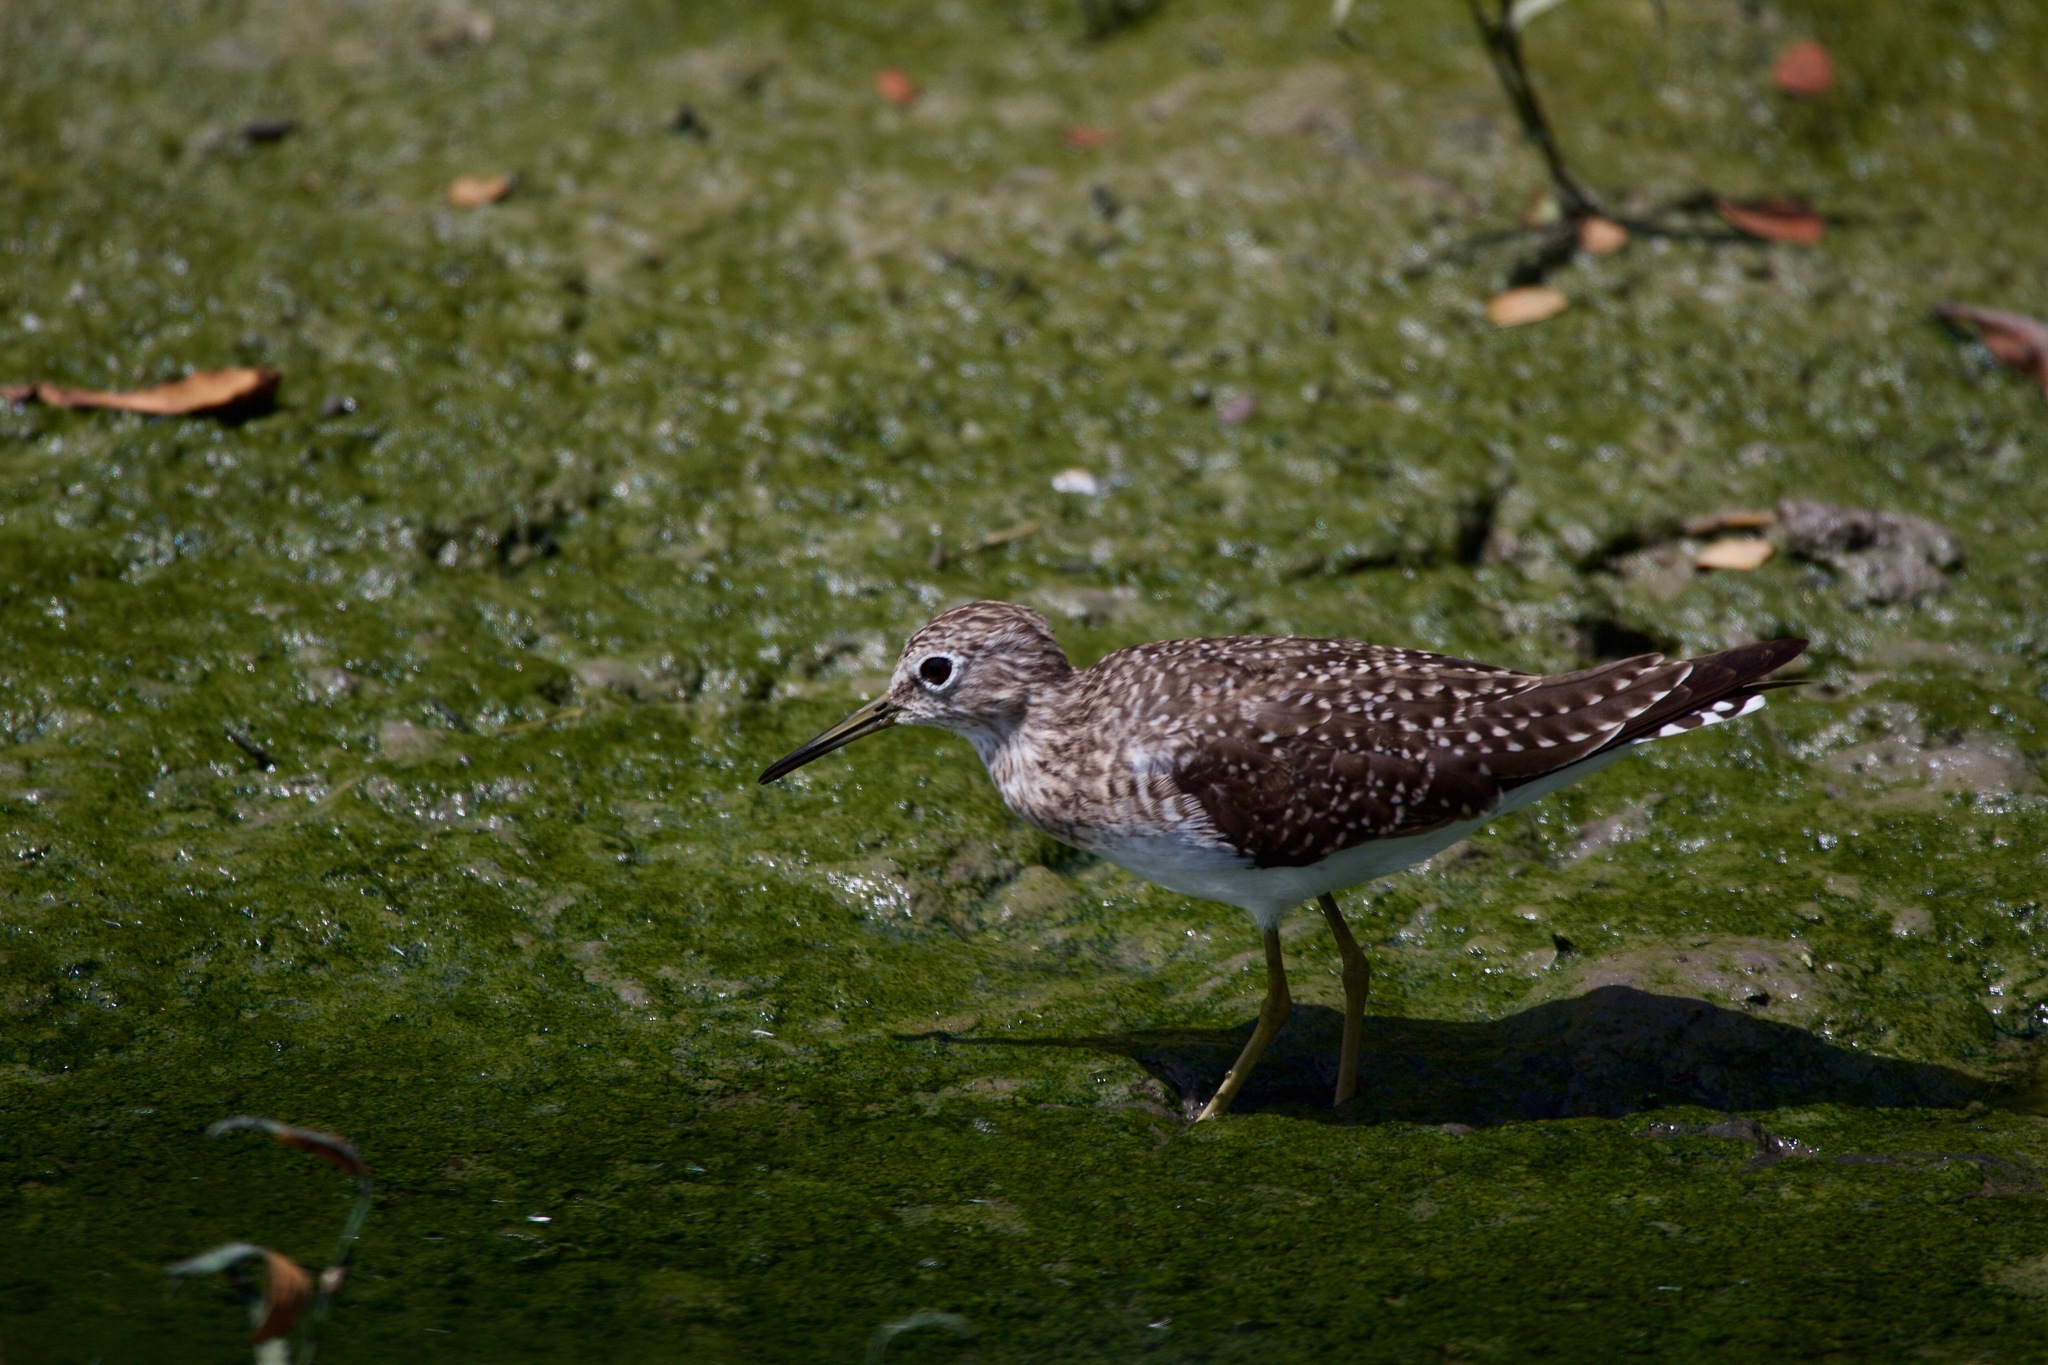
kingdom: Animalia
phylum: Chordata
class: Aves
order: Charadriiformes
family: Scolopacidae
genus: Tringa
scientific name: Tringa solitaria
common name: Solitary sandpiper
